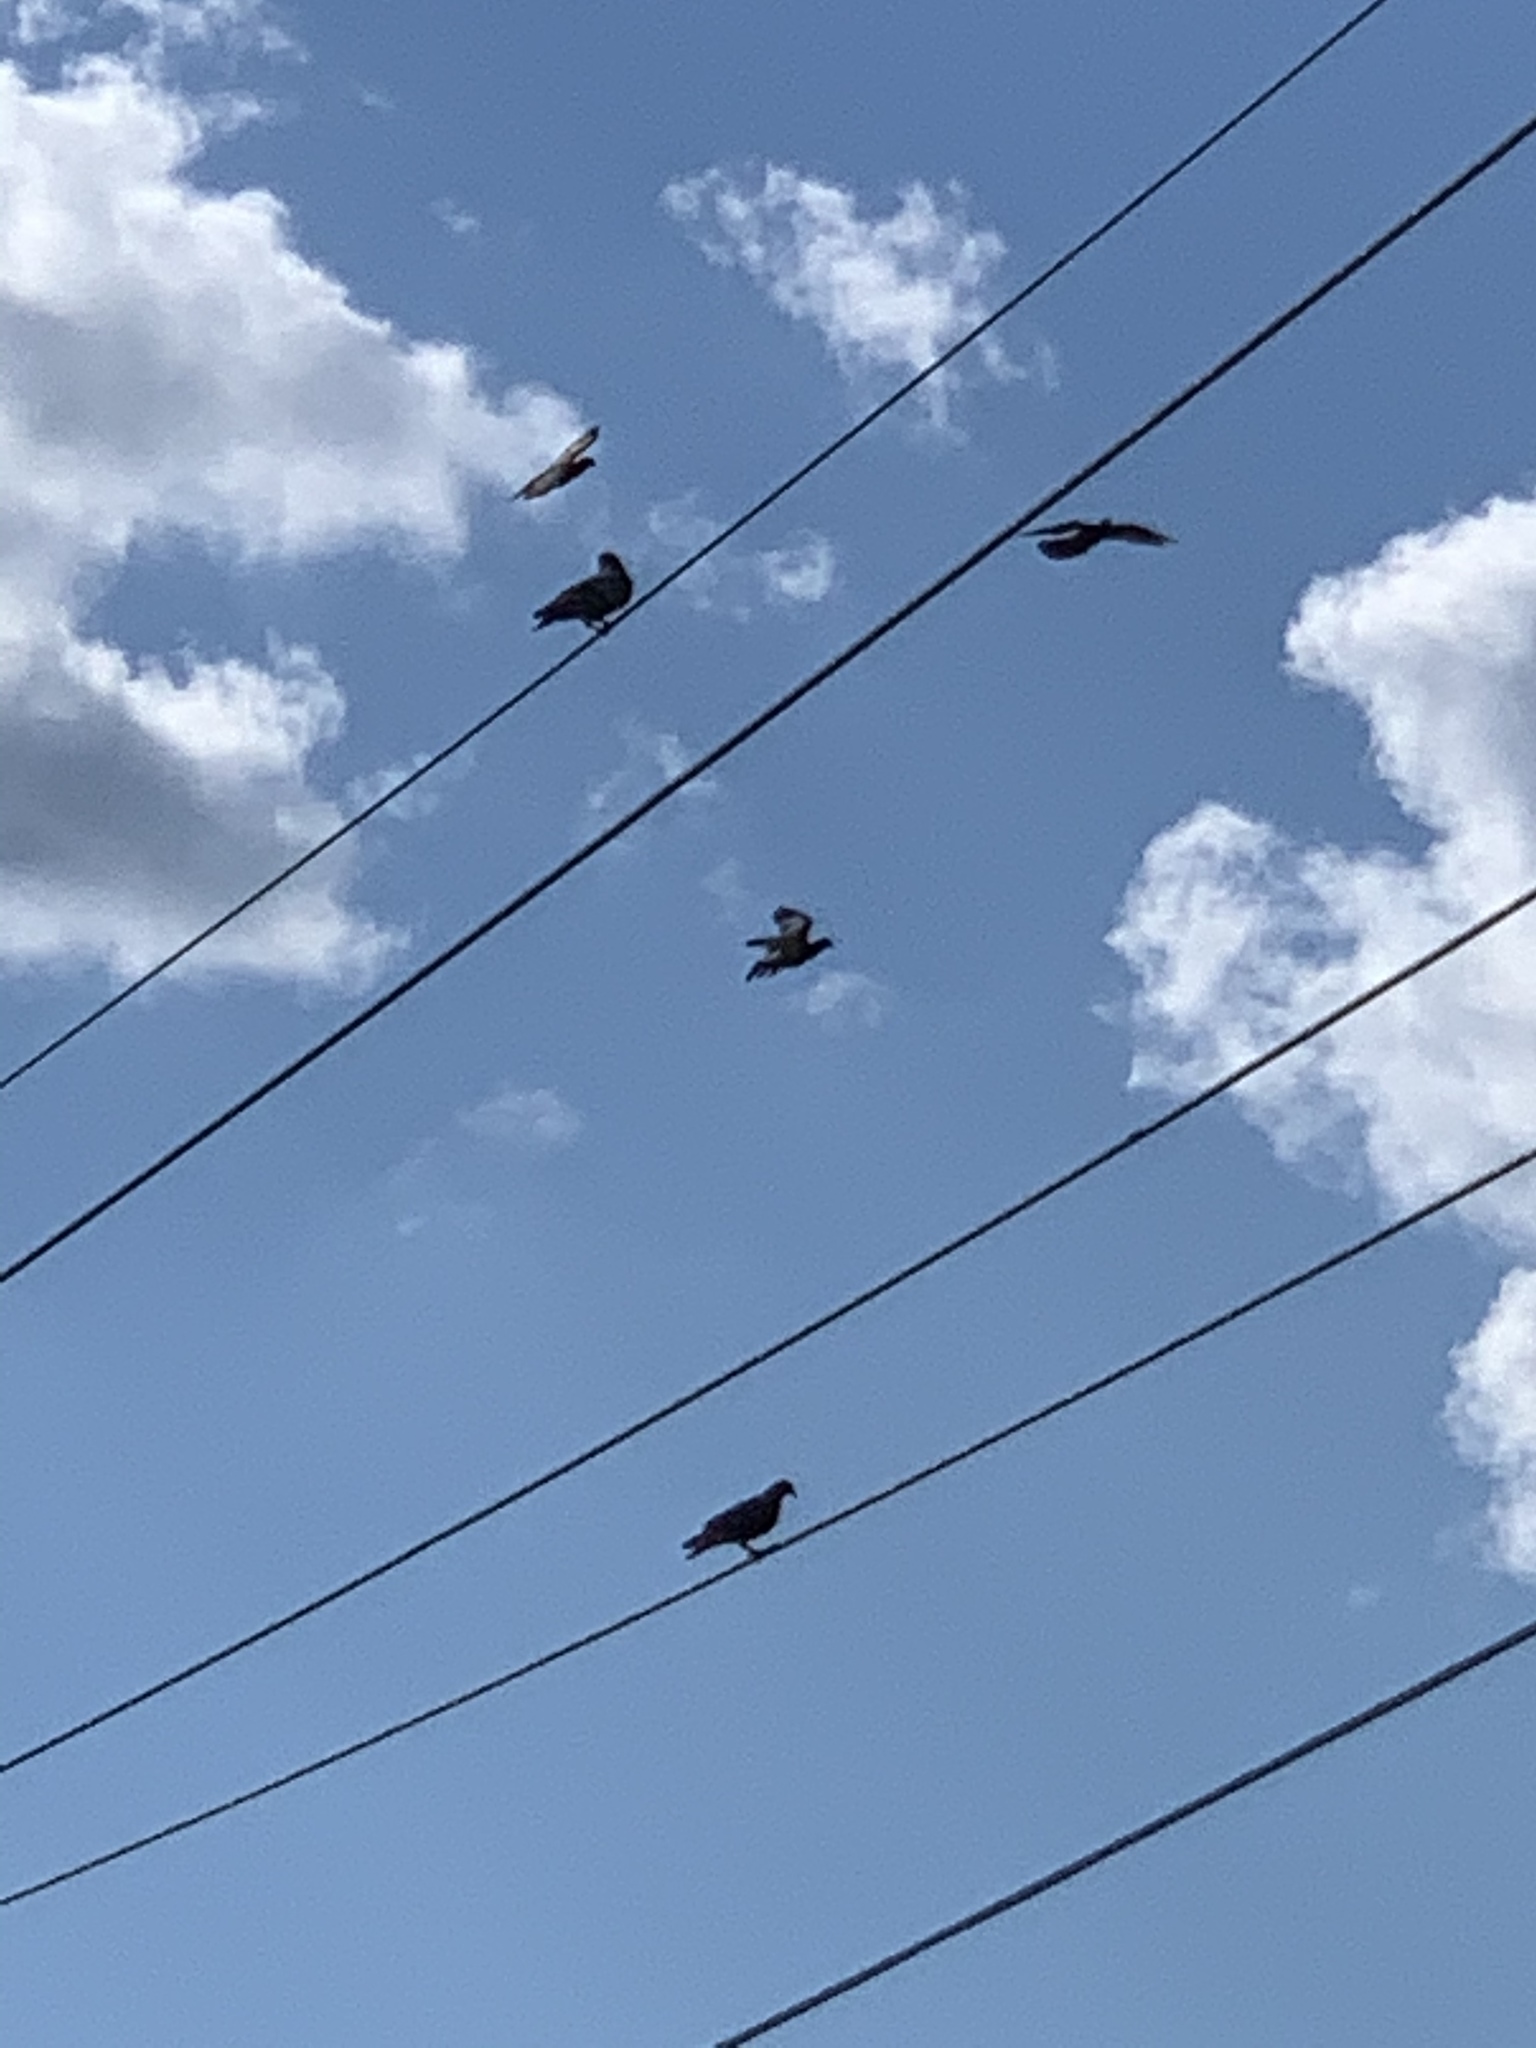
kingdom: Animalia
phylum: Chordata
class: Aves
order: Columbiformes
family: Columbidae
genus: Columba
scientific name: Columba livia
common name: Rock pigeon
